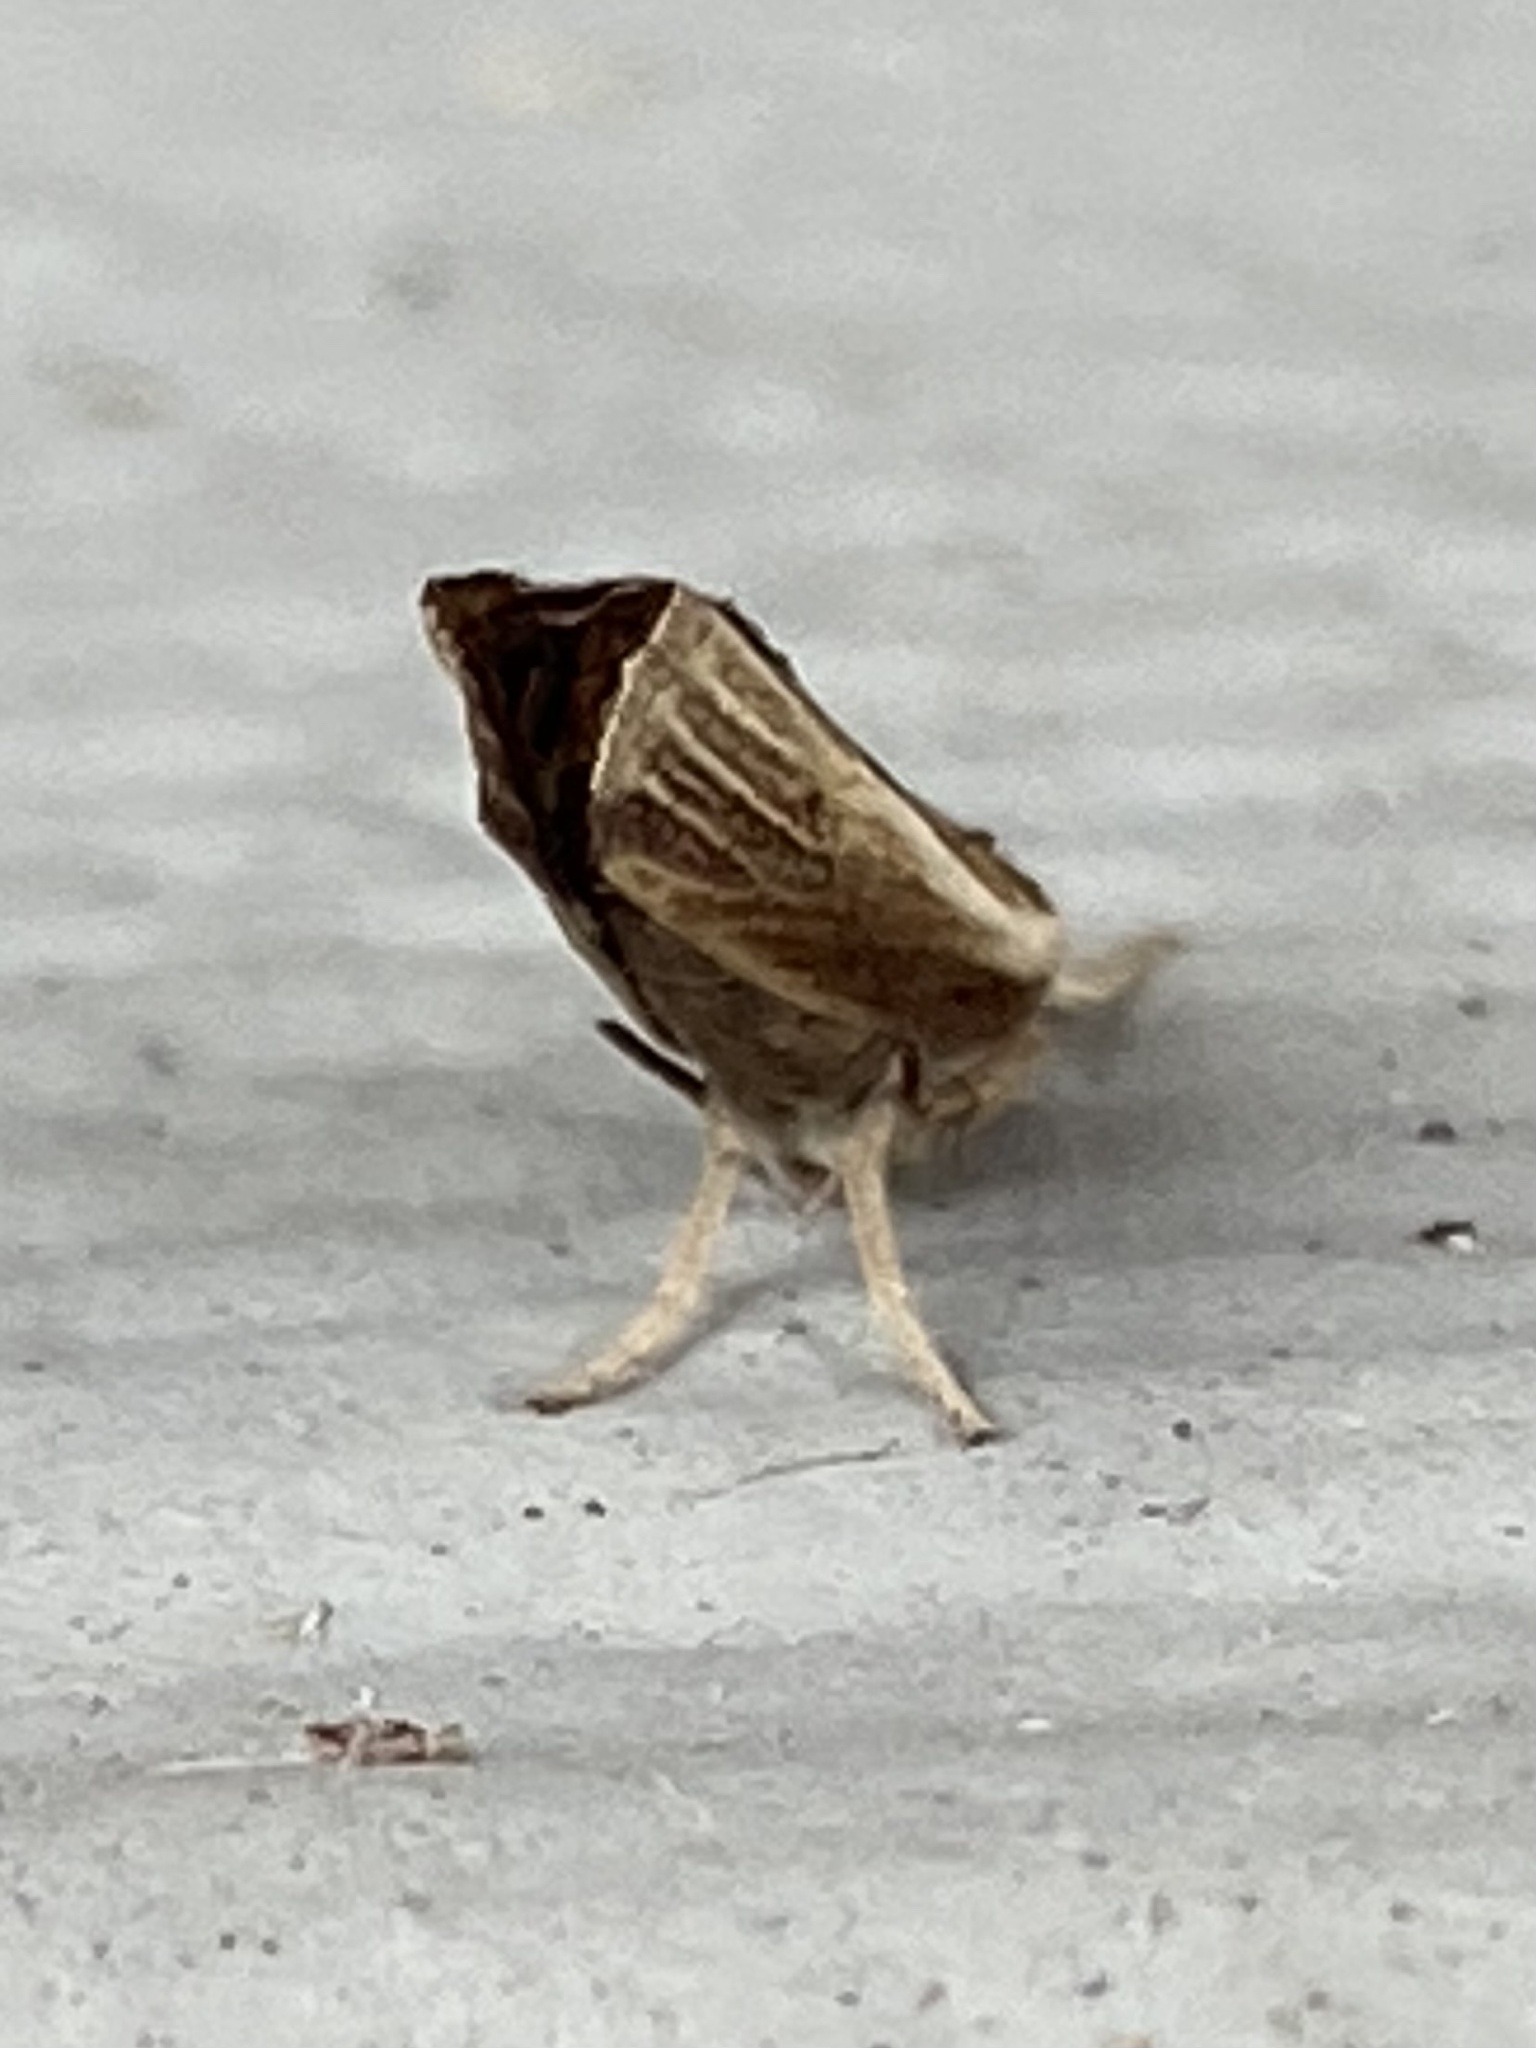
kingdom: Animalia
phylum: Arthropoda
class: Insecta
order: Lepidoptera
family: Crambidae
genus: Fissicrambus
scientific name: Fissicrambus fissiradiellus
